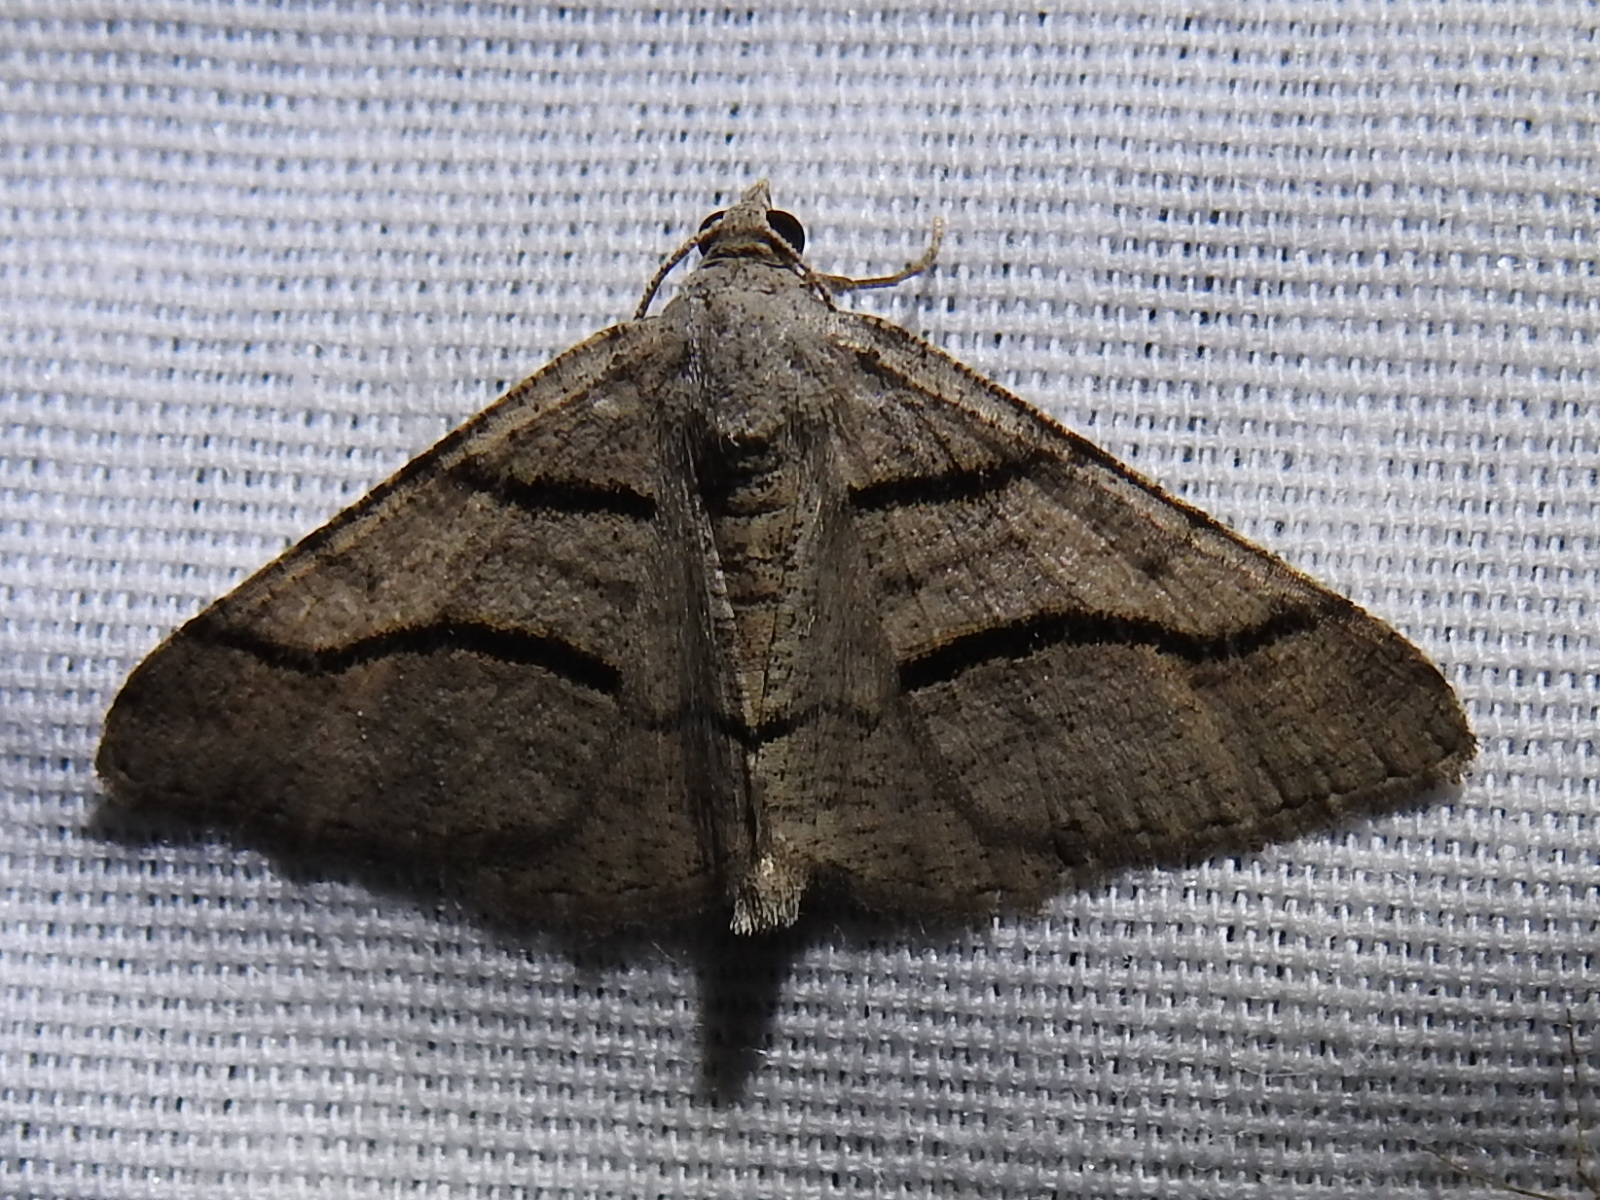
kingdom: Animalia
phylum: Arthropoda
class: Insecta
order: Lepidoptera
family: Geometridae
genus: Digrammia
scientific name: Digrammia continuata
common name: Curve-lined angle
